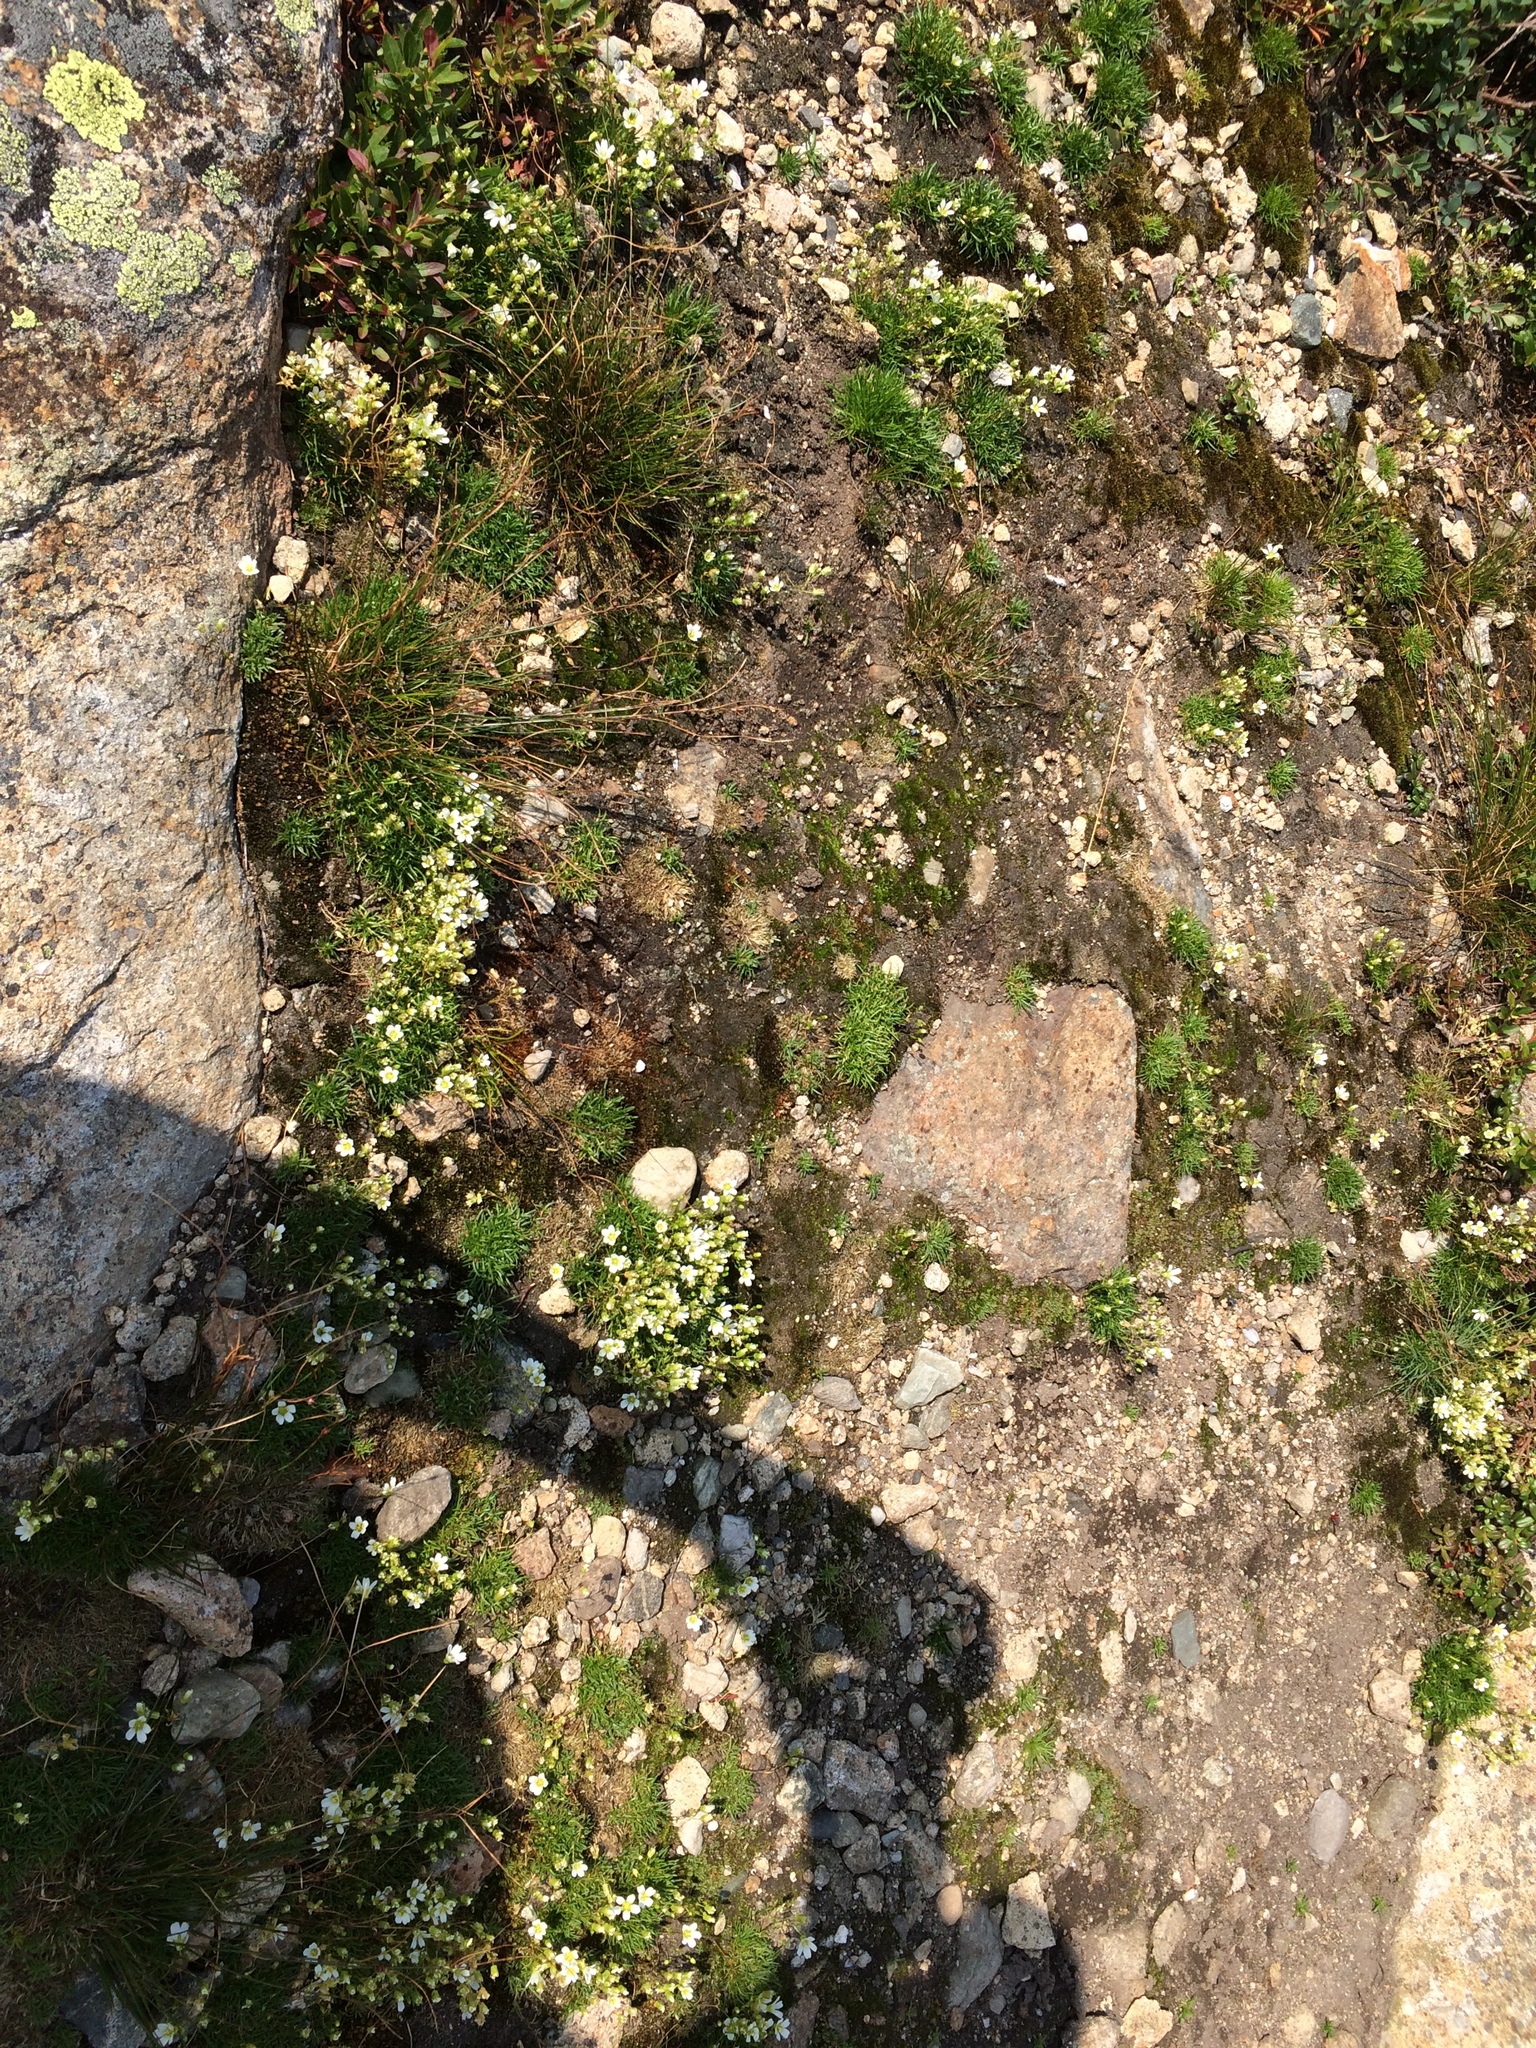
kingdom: Plantae
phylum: Tracheophyta
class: Magnoliopsida
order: Caryophyllales
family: Caryophyllaceae
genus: Geocarpon
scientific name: Geocarpon groenlandicum
